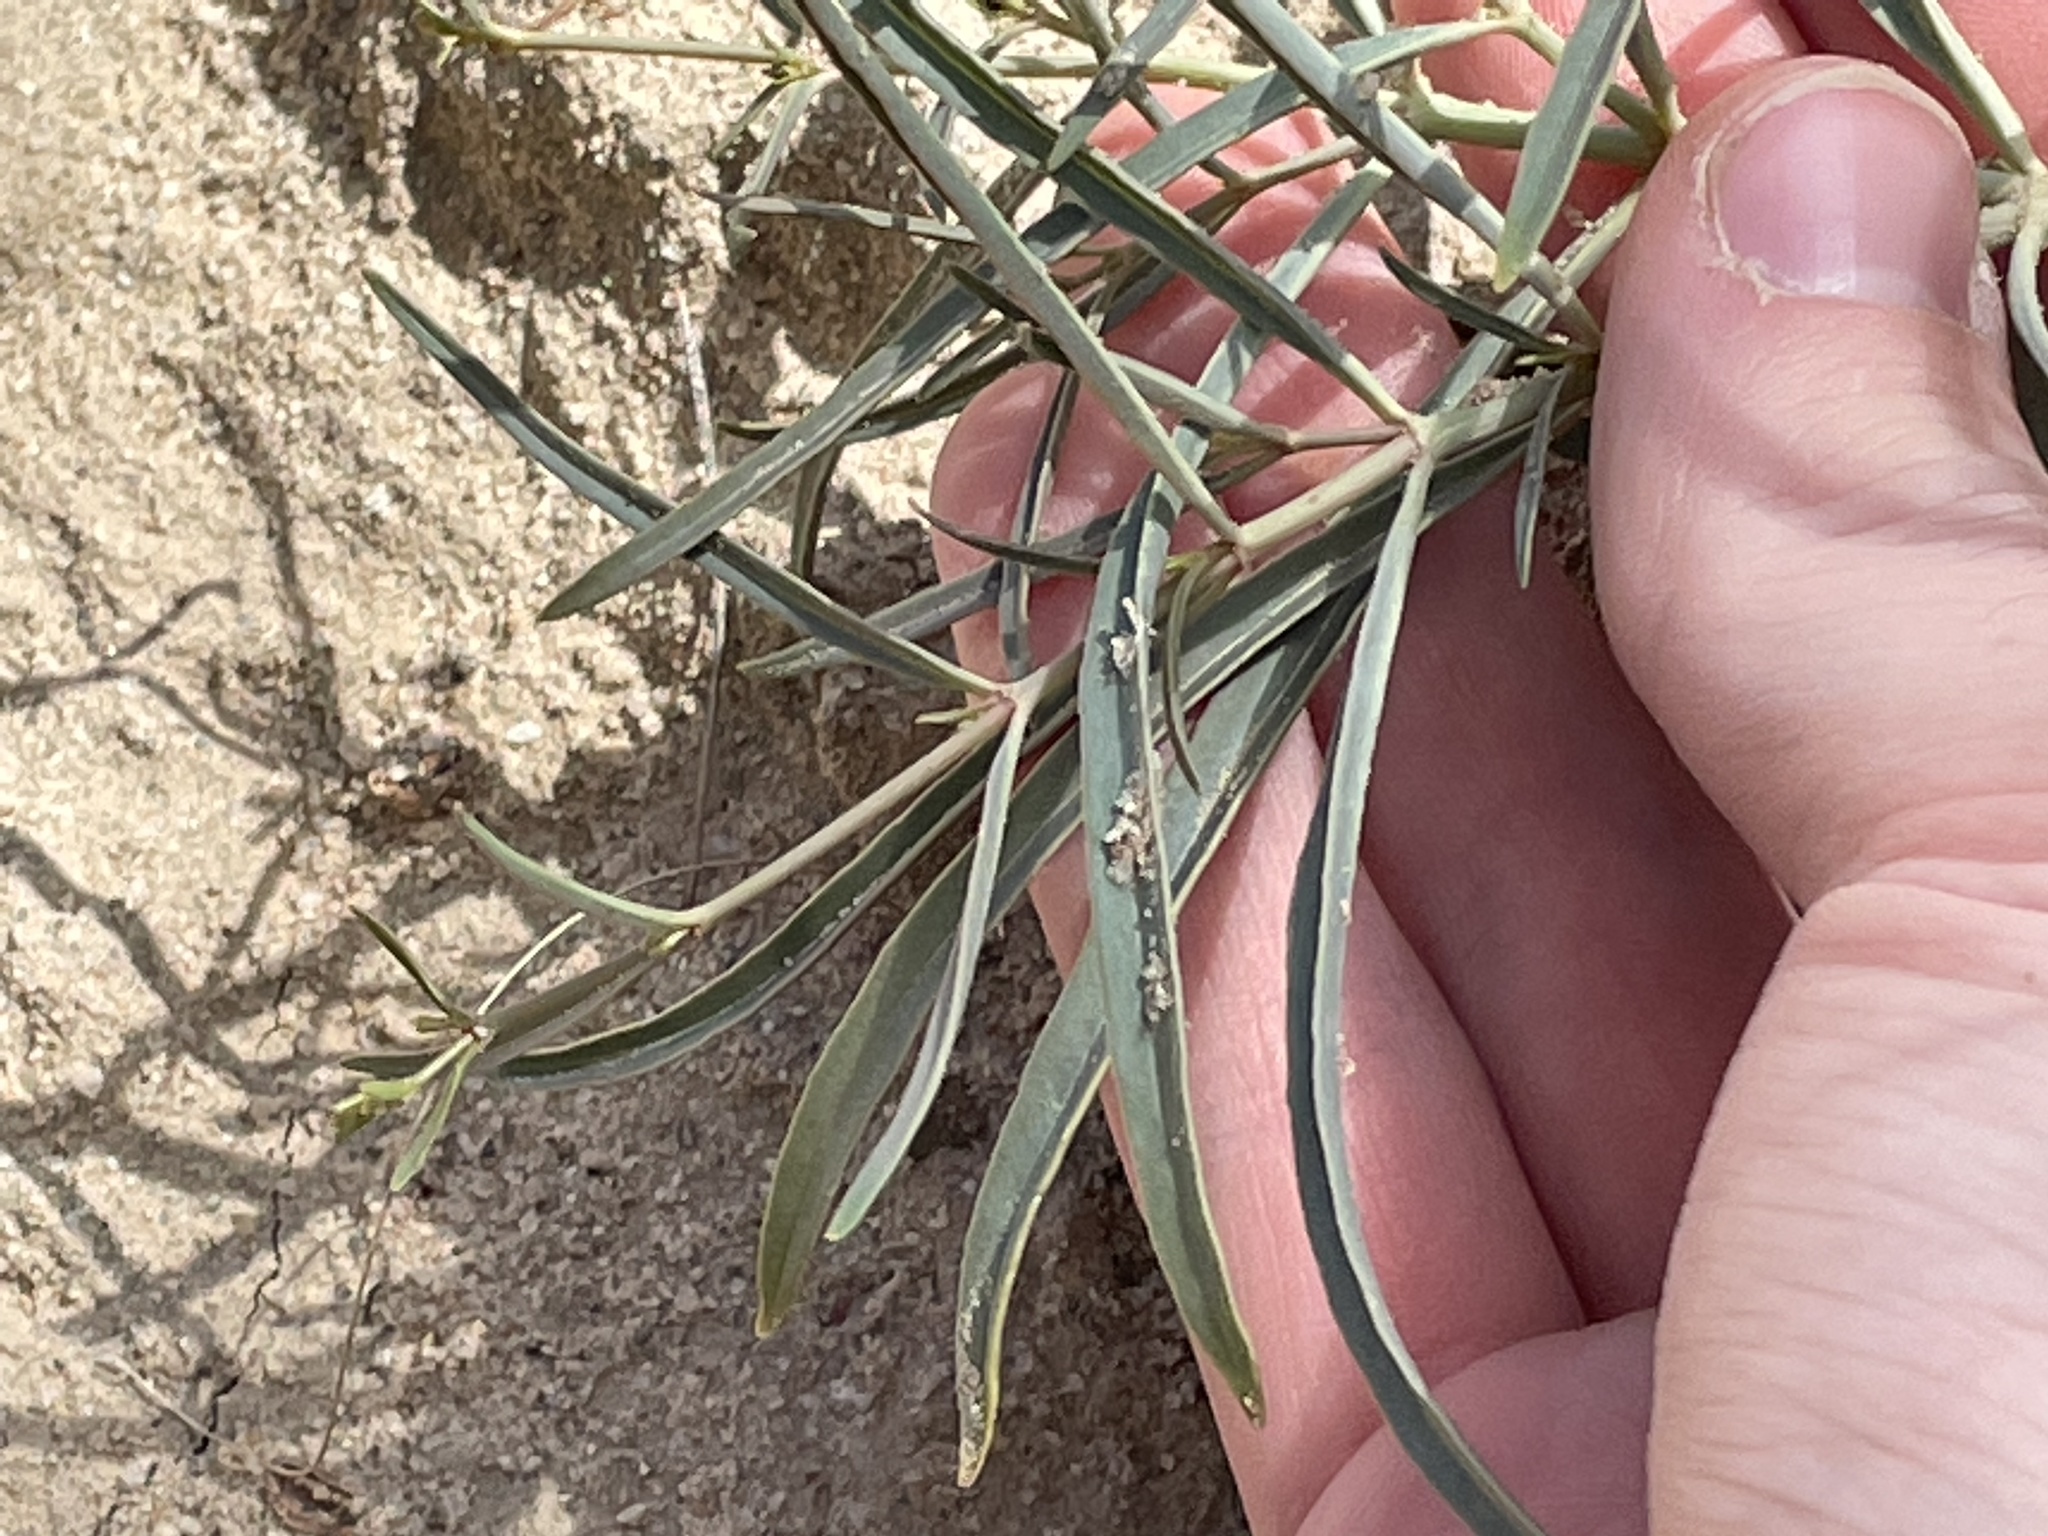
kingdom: Plantae
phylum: Tracheophyta
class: Magnoliopsida
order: Caryophyllales
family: Nyctaginaceae
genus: Mirabilis
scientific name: Mirabilis linearis
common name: Linear-leaved four-o'clock
